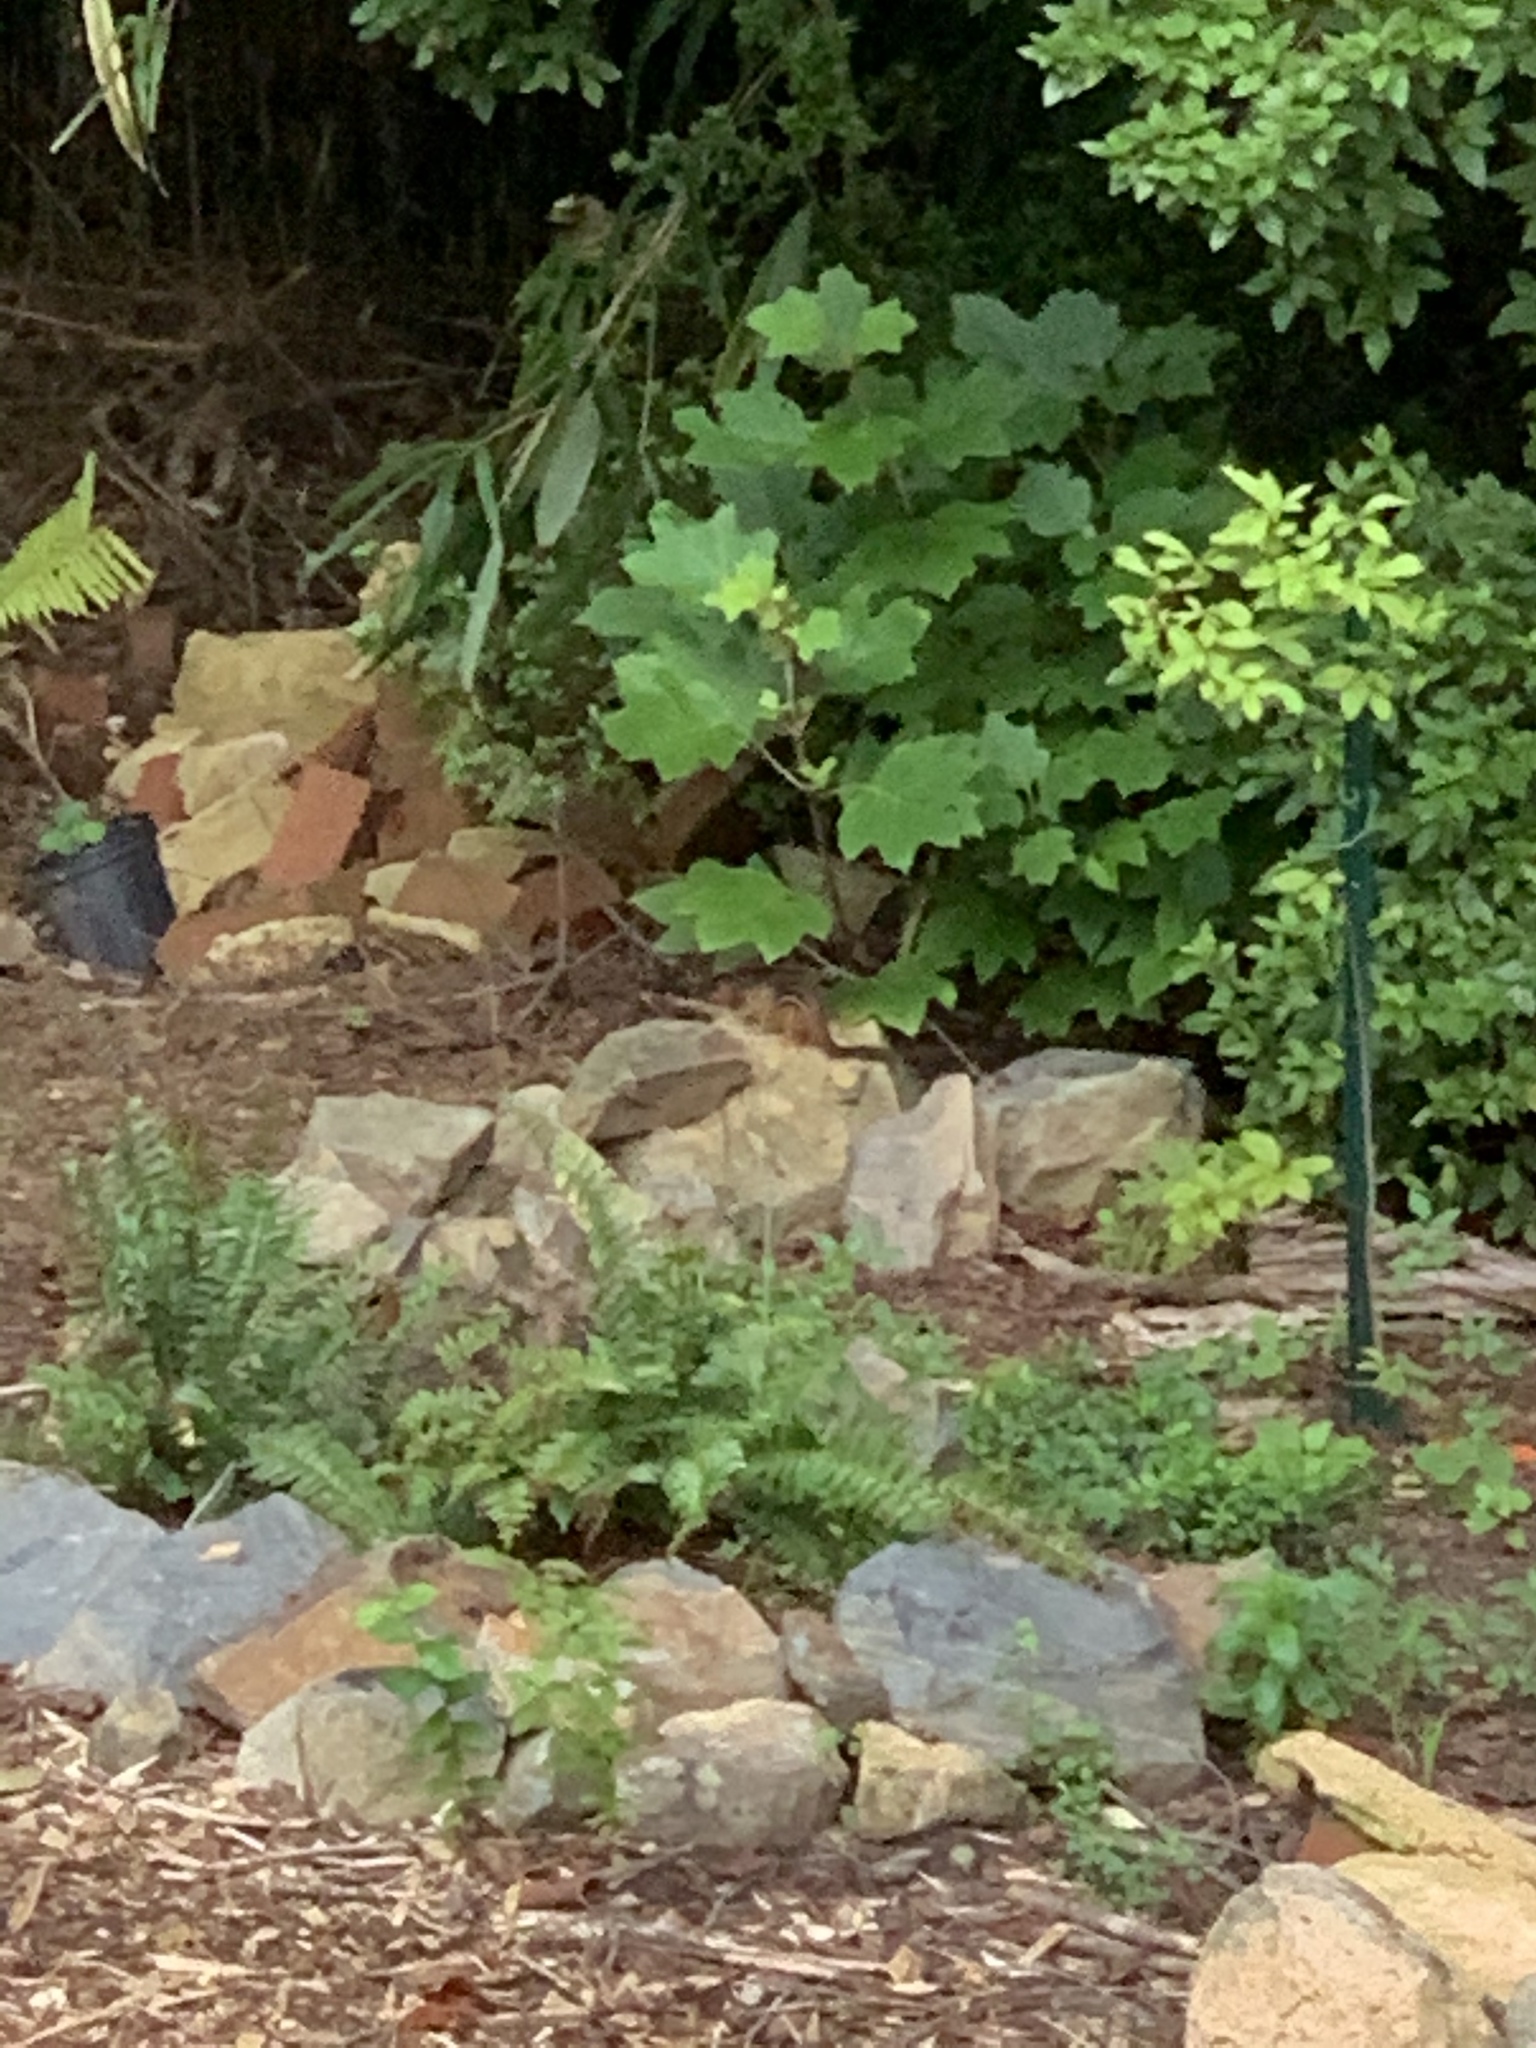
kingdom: Animalia
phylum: Chordata
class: Mammalia
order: Rodentia
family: Sciuridae
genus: Tamias
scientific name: Tamias striatus
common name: Eastern chipmunk
